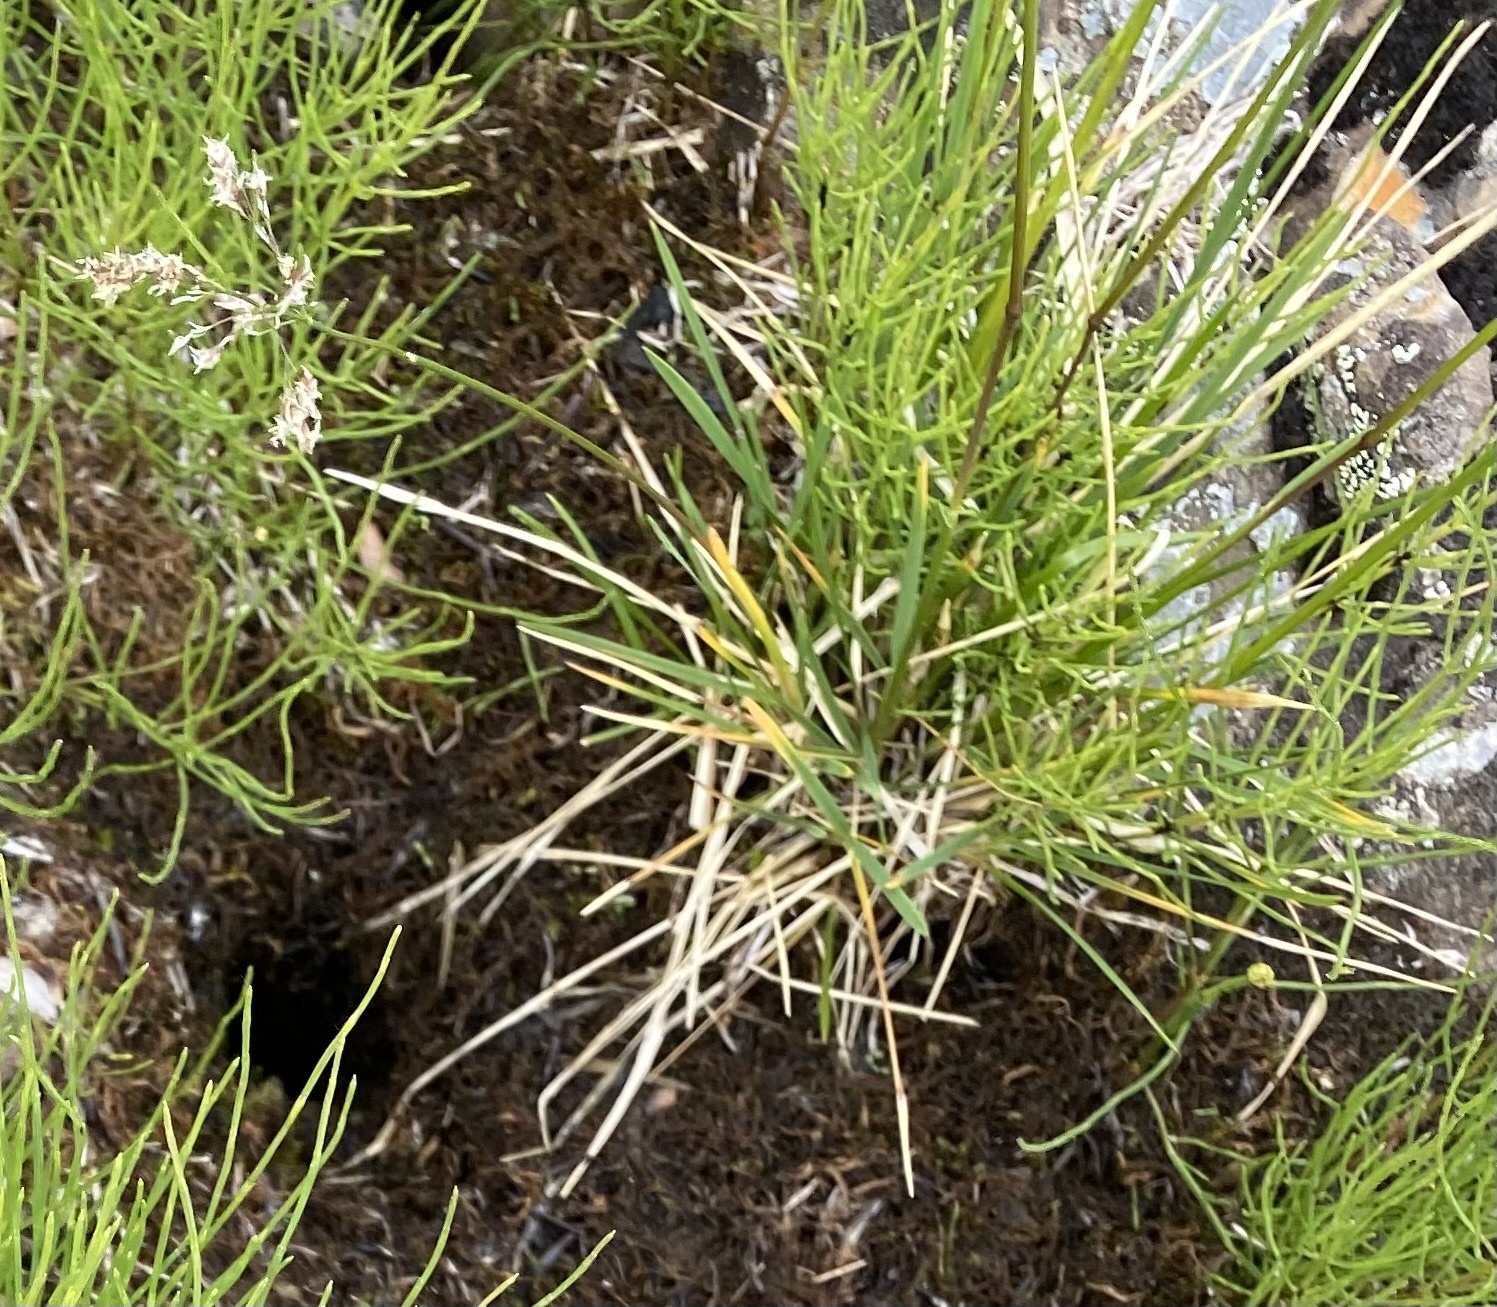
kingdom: Plantae
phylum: Tracheophyta
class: Liliopsida
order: Poales
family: Poaceae
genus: Deschampsia
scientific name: Deschampsia cespitosa
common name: Tufted hair-grass
